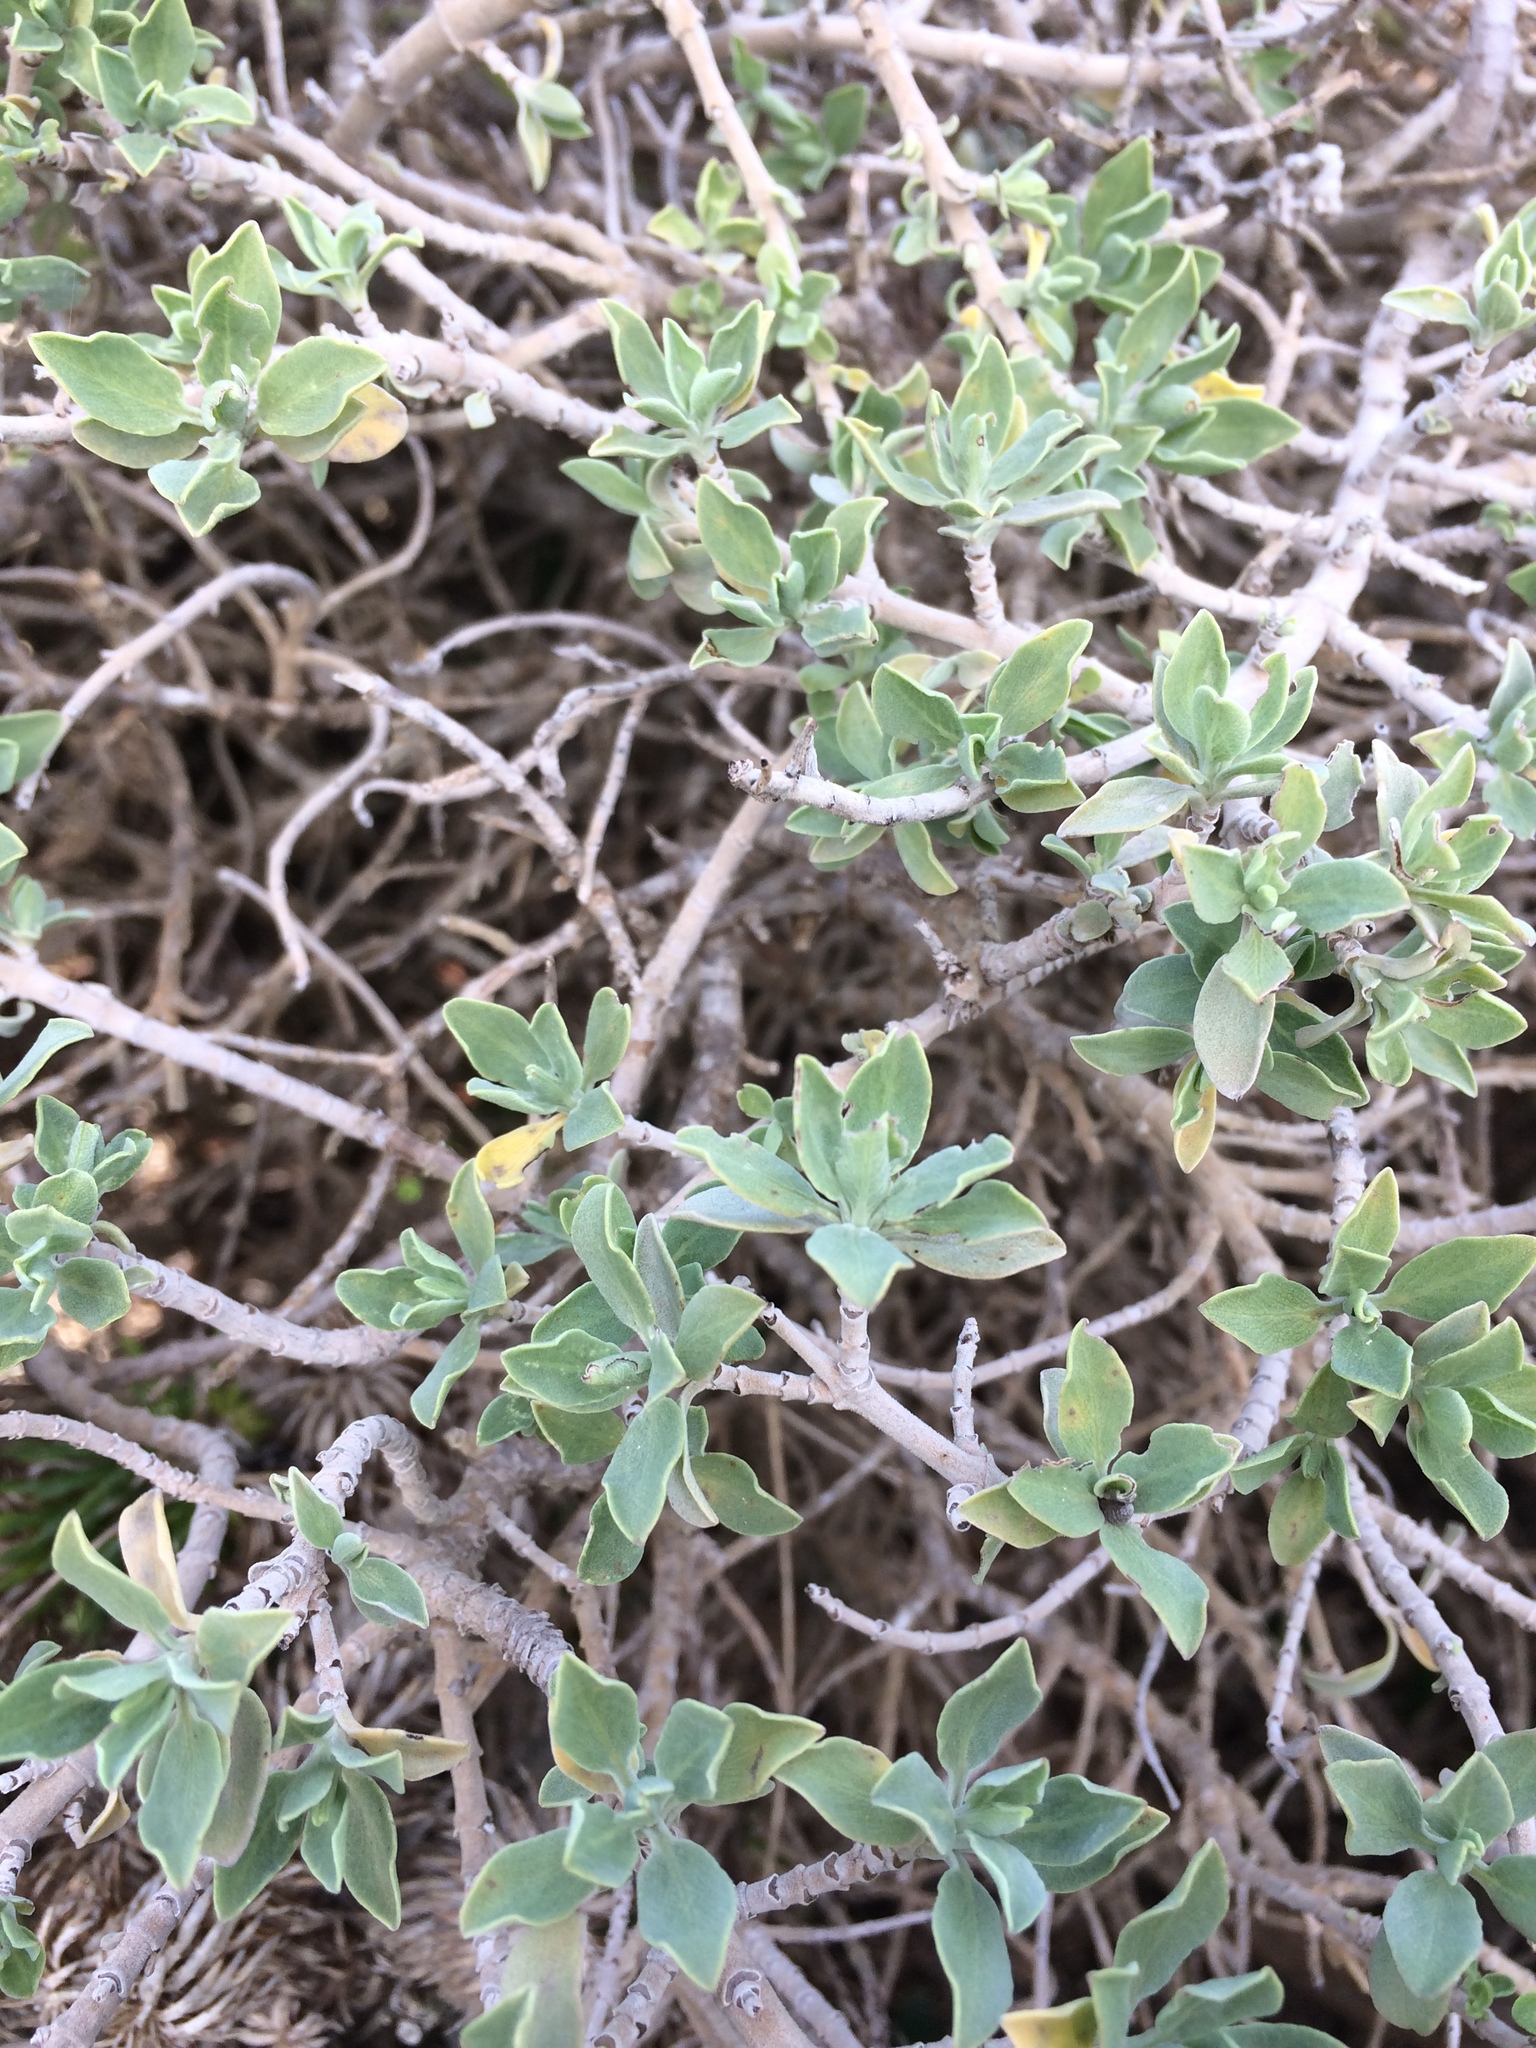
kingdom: Plantae
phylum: Tracheophyta
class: Magnoliopsida
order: Lamiales
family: Lamiaceae
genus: Salvia
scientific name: Salvia aurea
